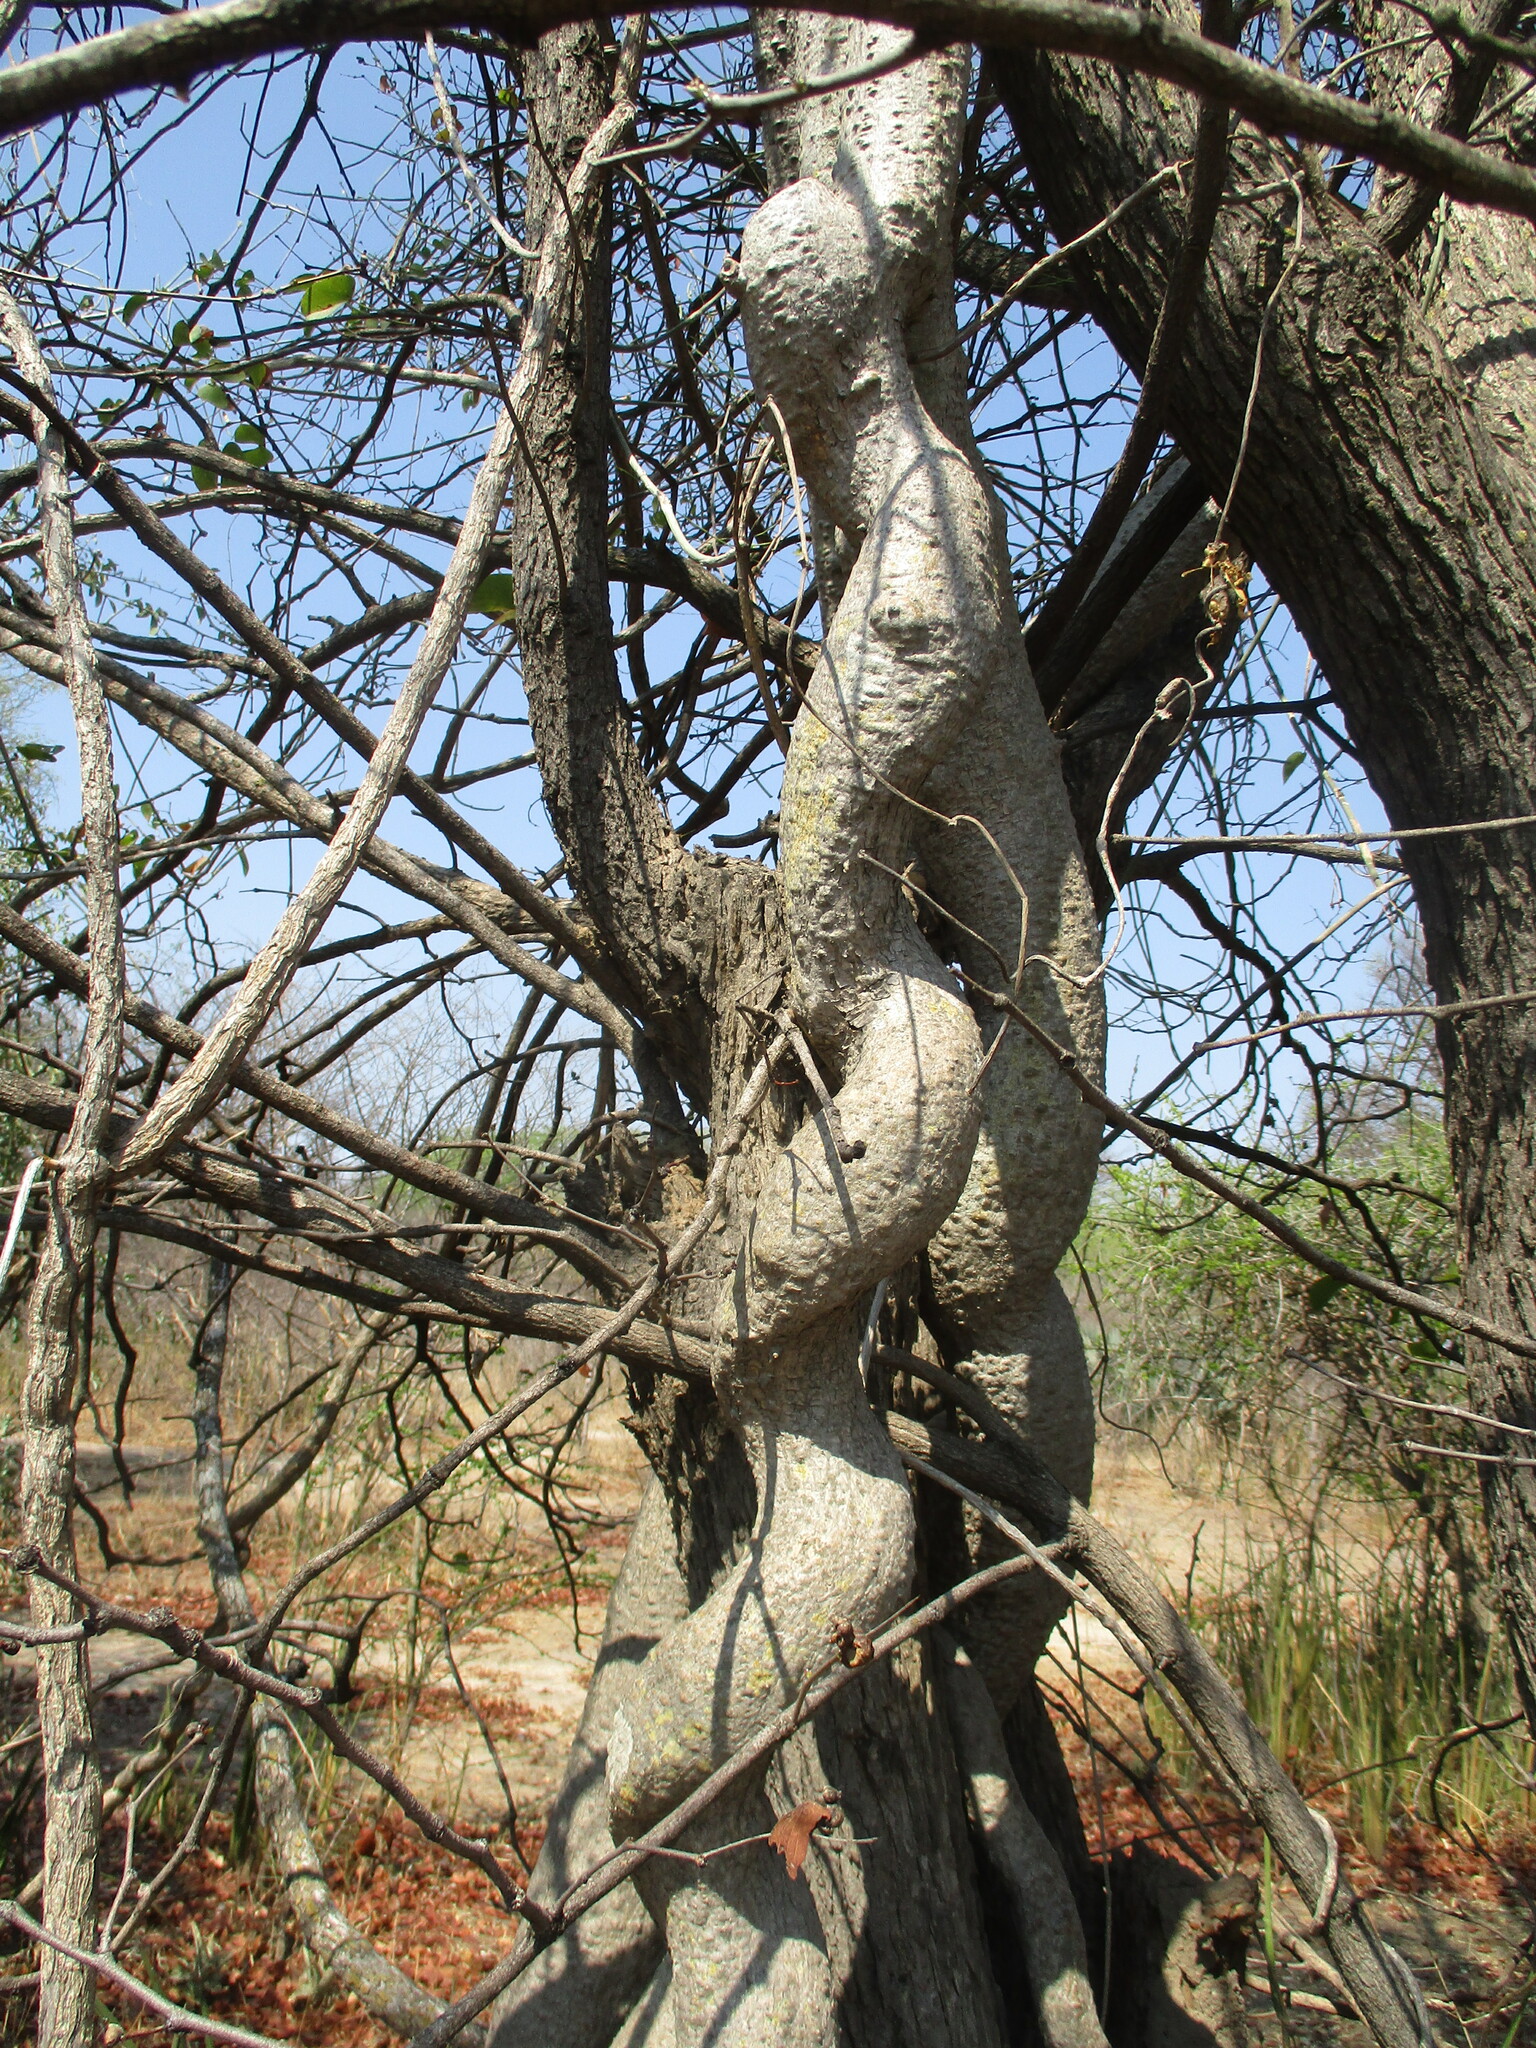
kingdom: Plantae
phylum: Tracheophyta
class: Magnoliopsida
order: Gentianales
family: Apocynaceae
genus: Fockea
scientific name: Fockea multiflora
